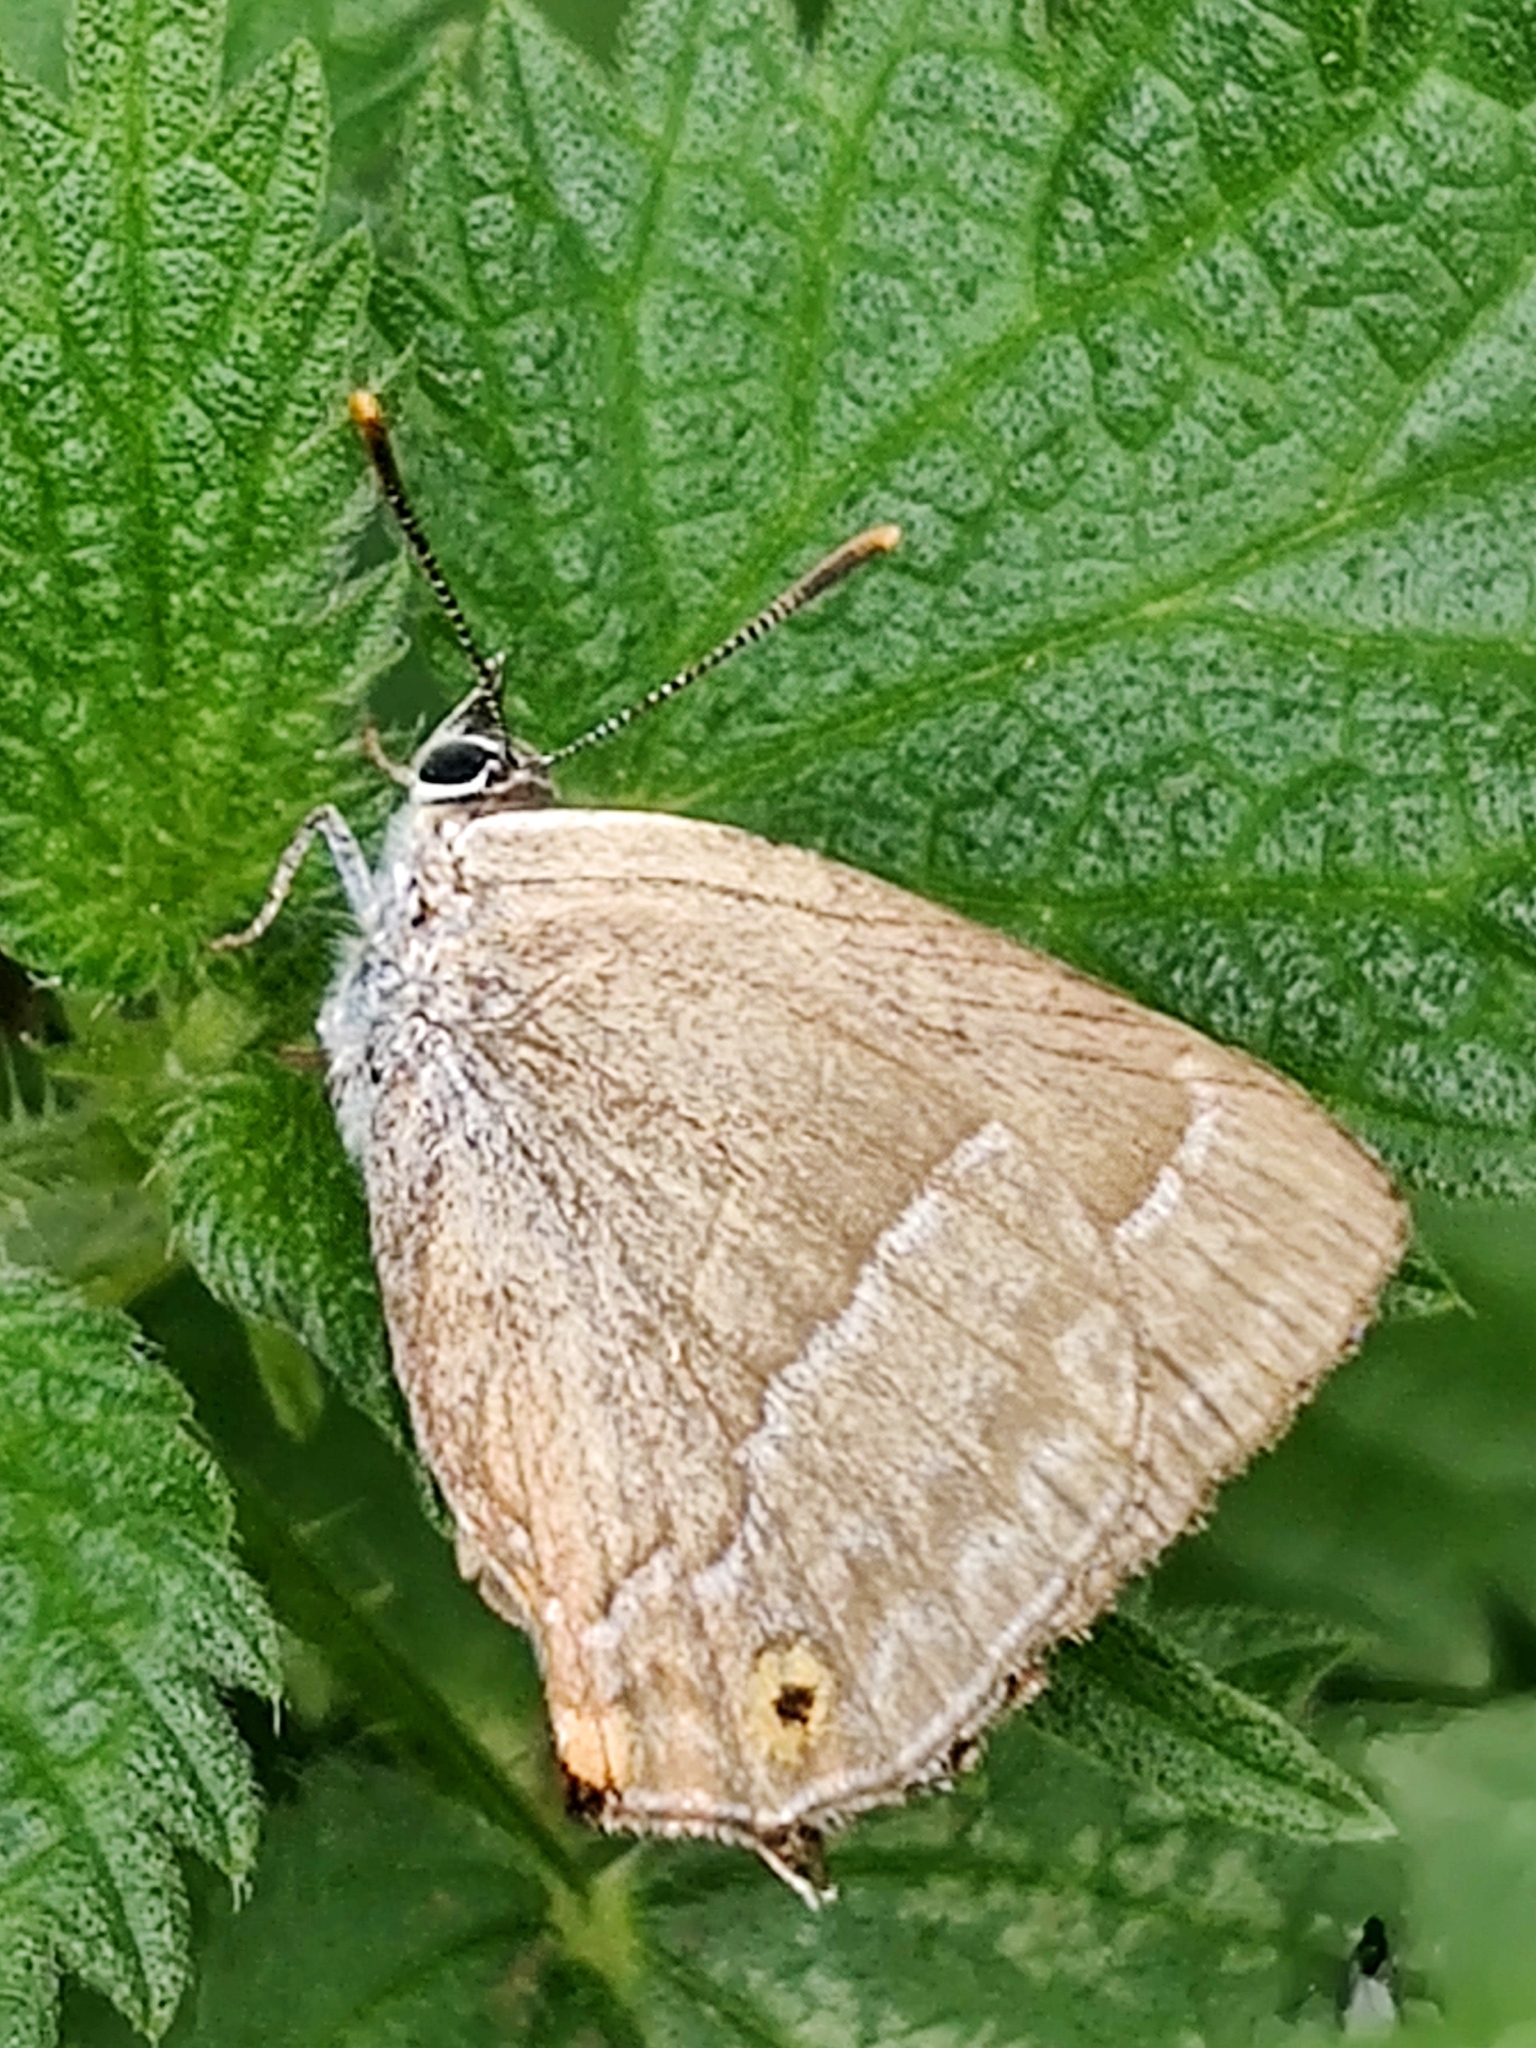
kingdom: Animalia
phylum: Arthropoda
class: Insecta
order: Lepidoptera
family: Lycaenidae
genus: Quercusia
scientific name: Quercusia quercus
